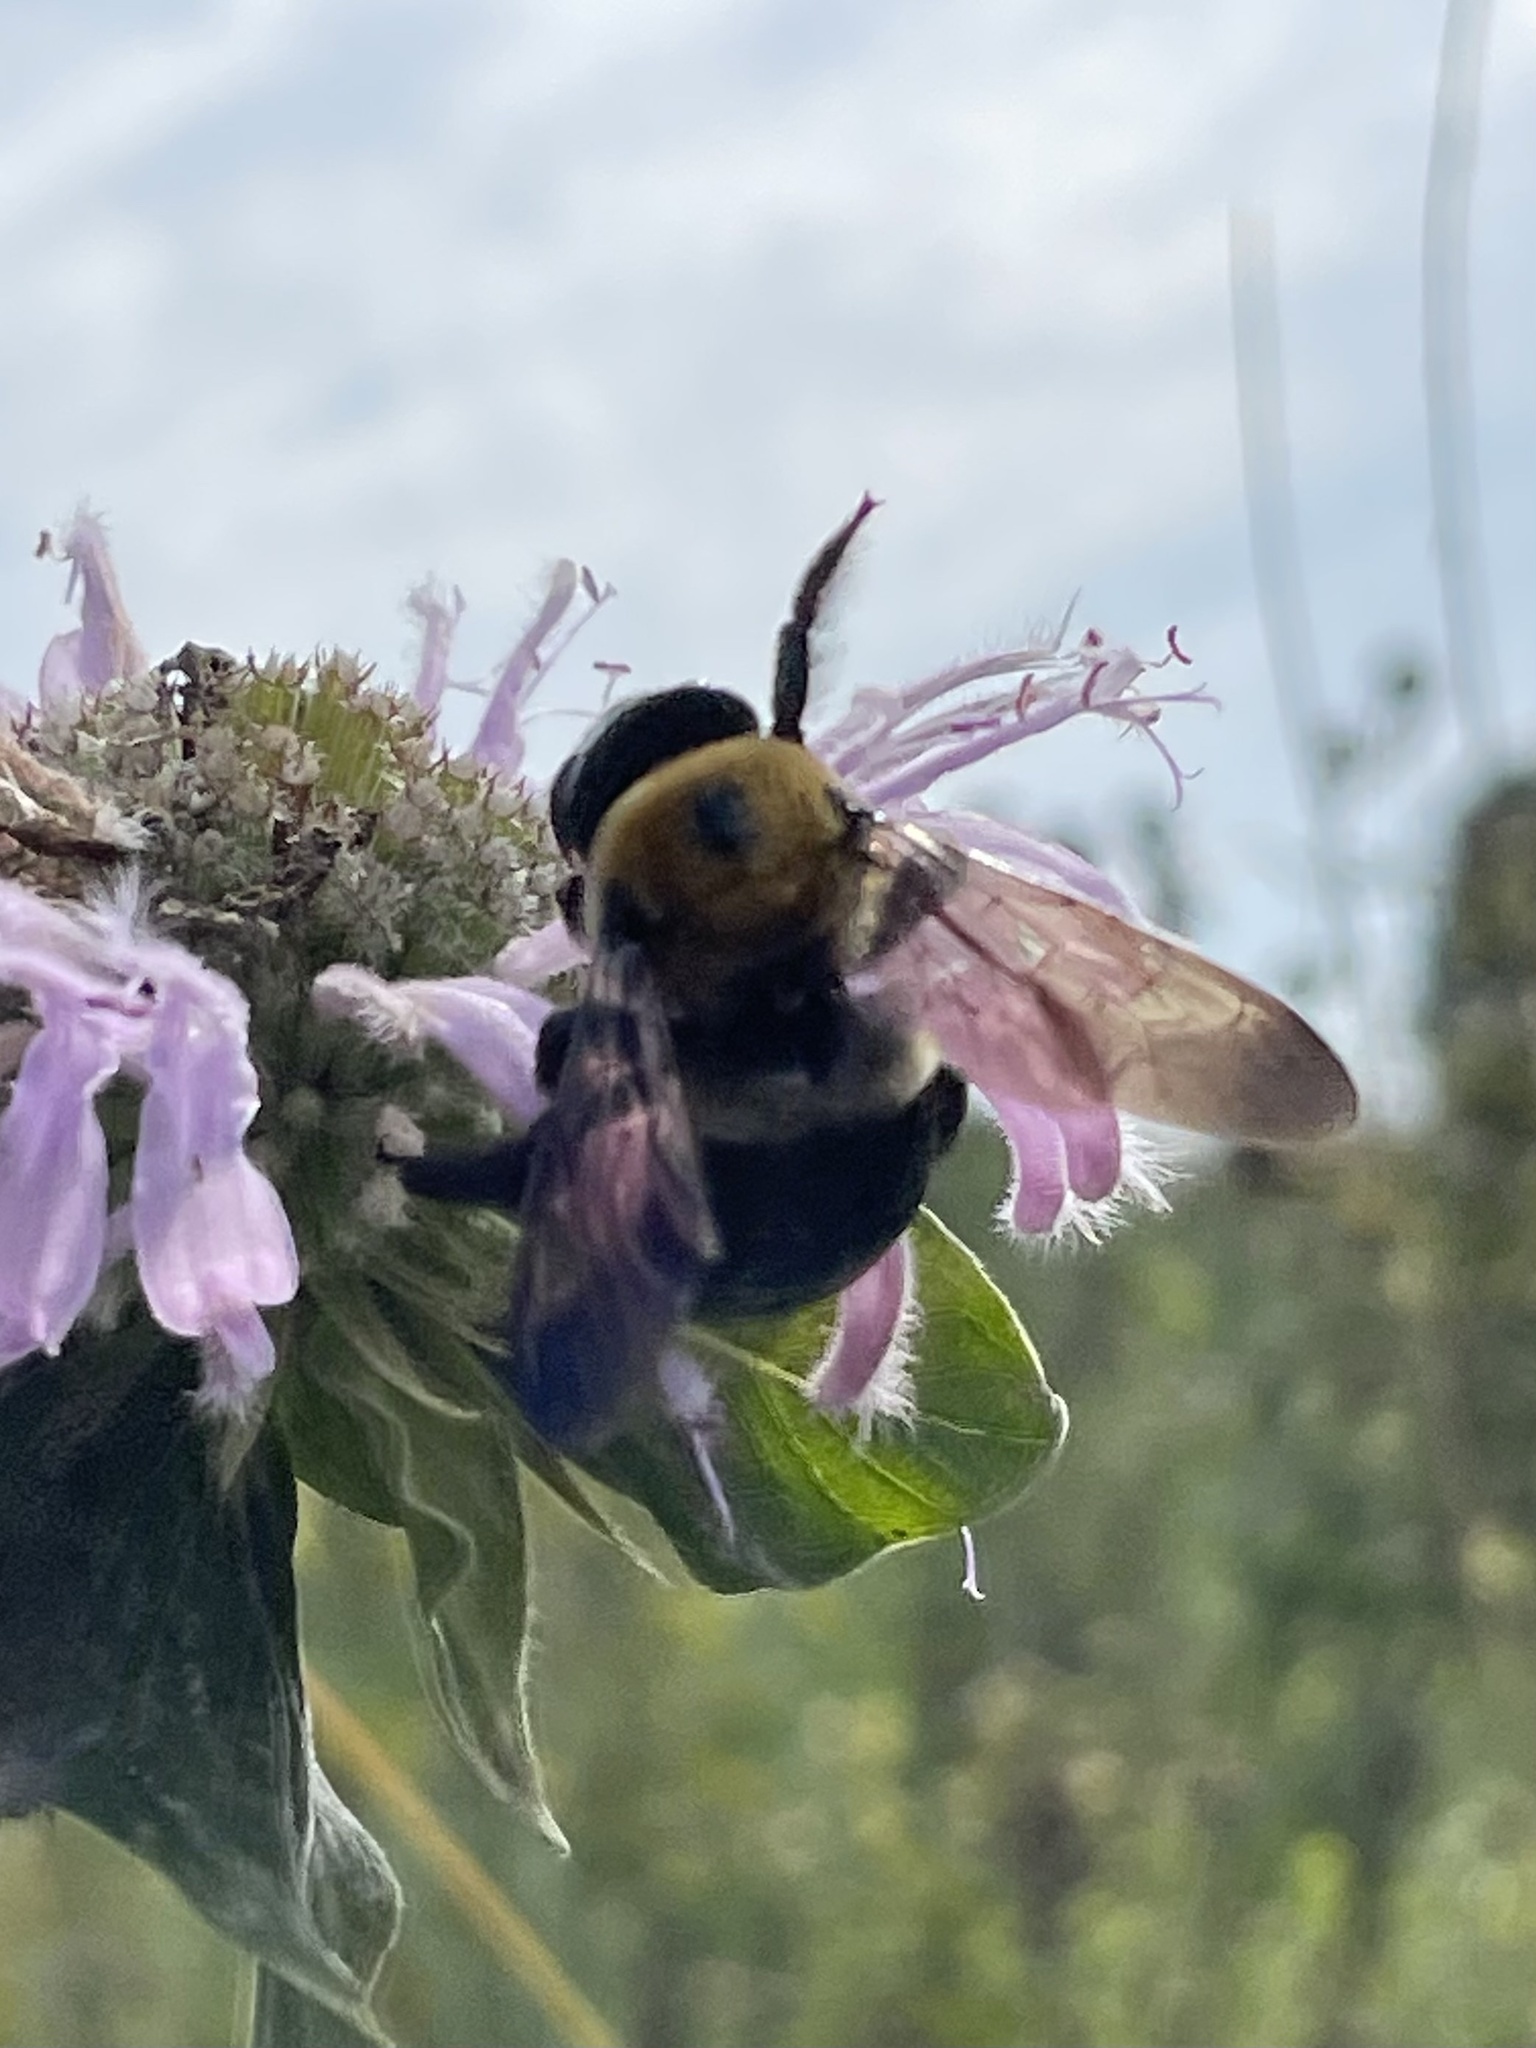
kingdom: Animalia
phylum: Arthropoda
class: Insecta
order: Hymenoptera
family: Apidae
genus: Xylocopa
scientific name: Xylocopa virginica
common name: Carpenter bee
